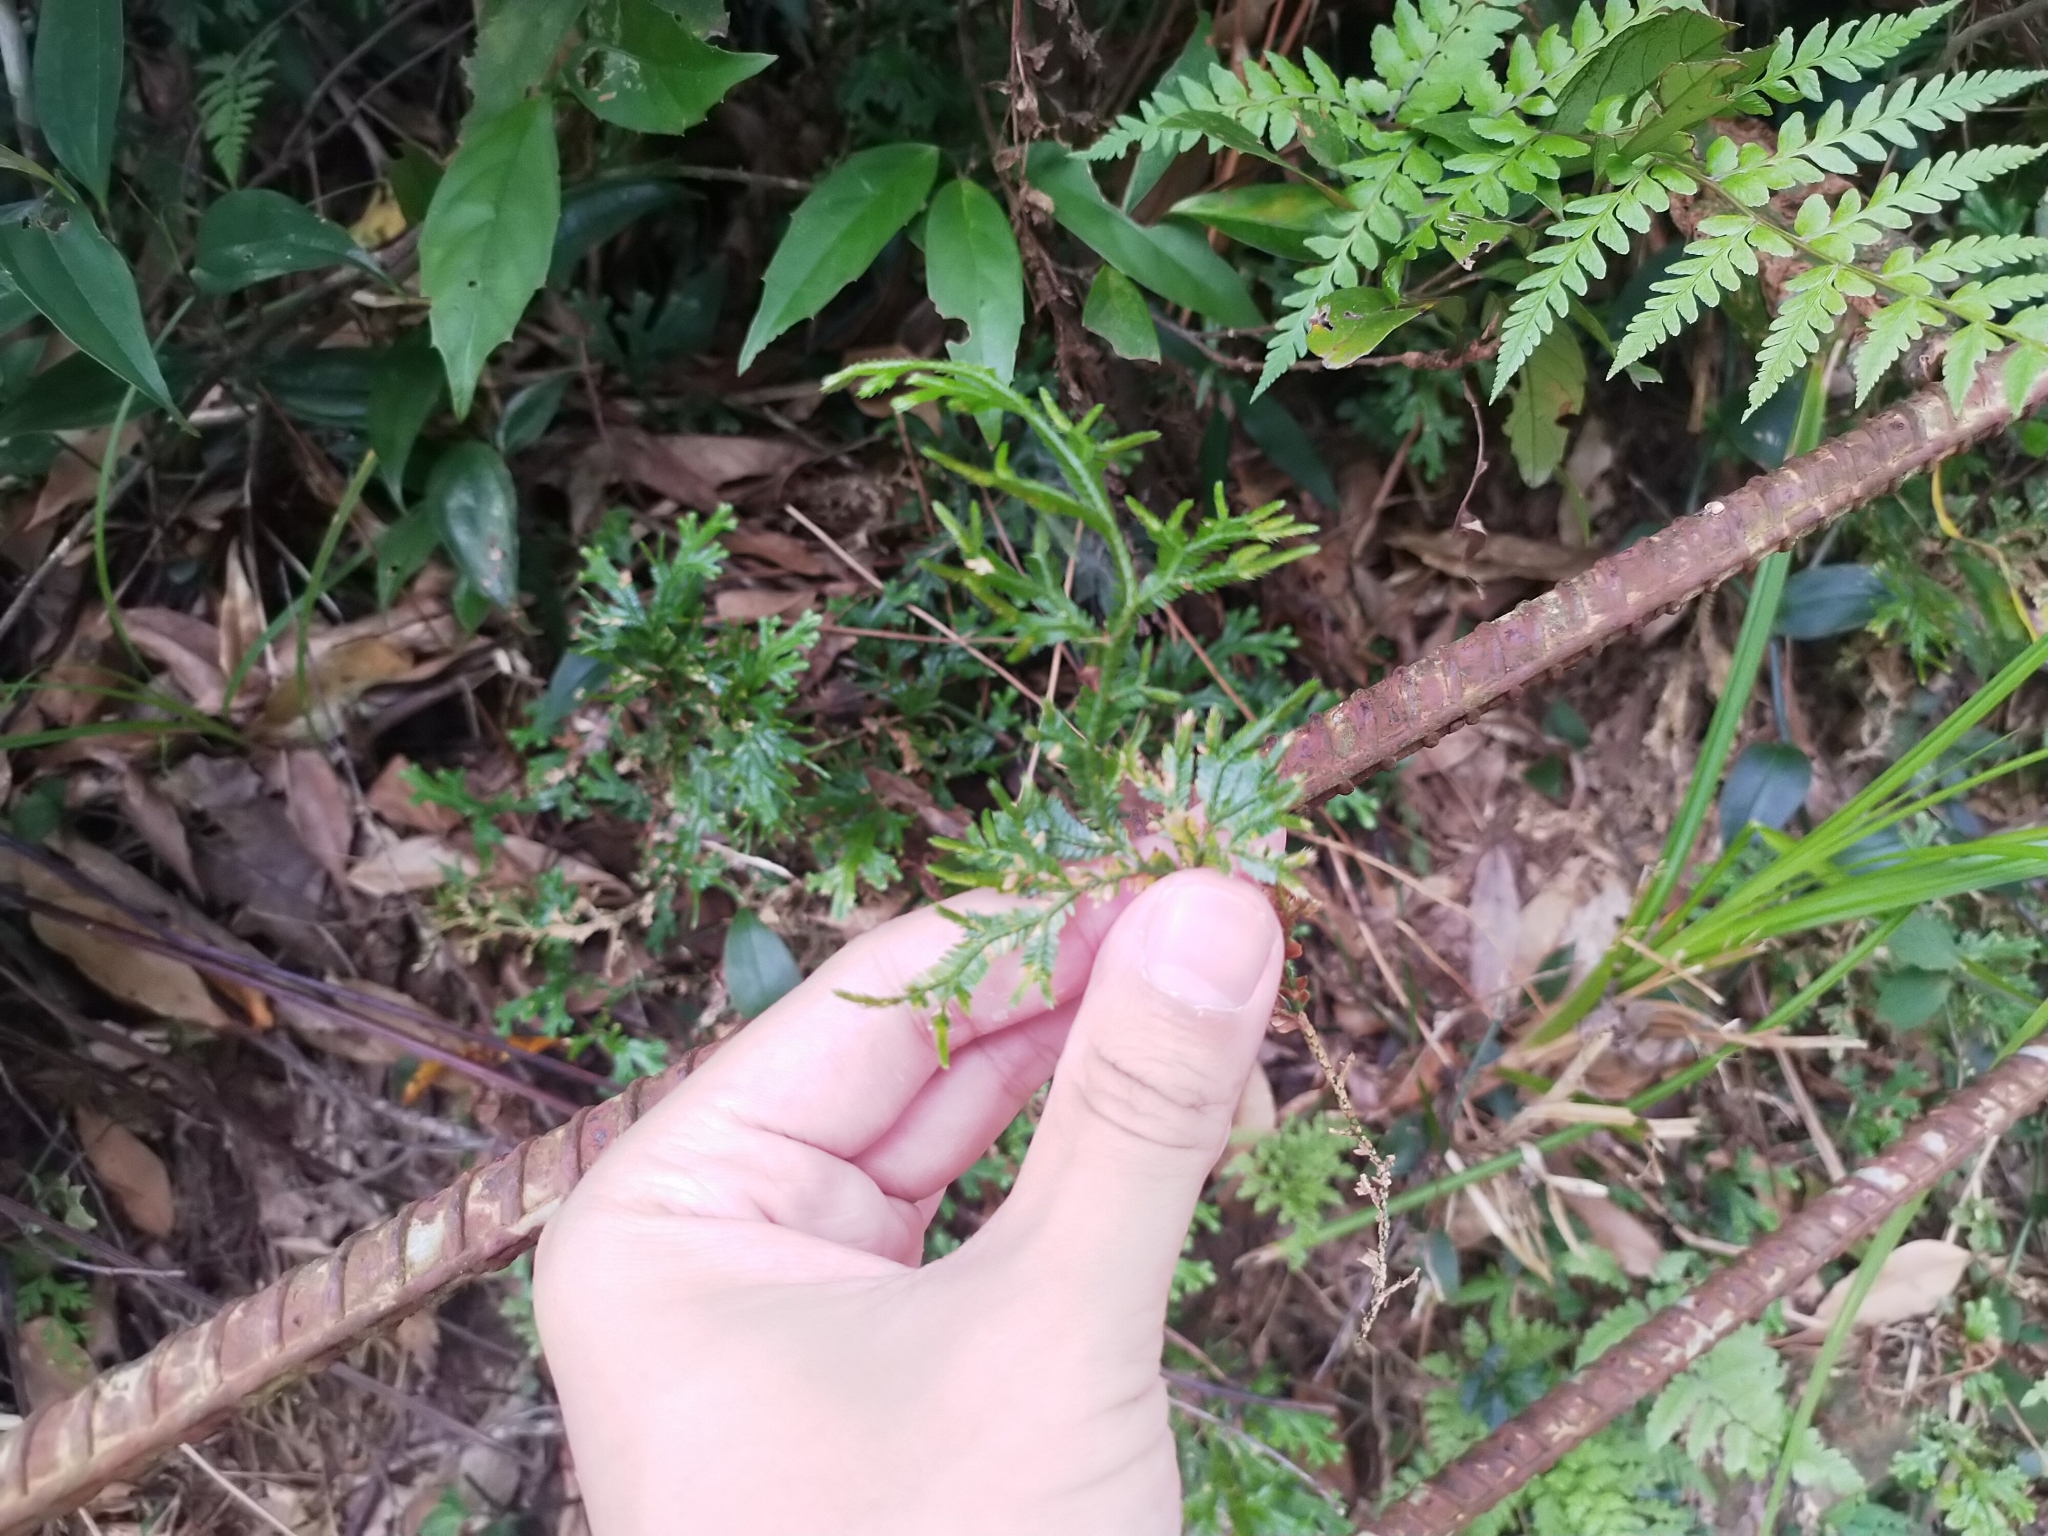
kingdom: Plantae
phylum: Tracheophyta
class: Lycopodiopsida
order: Selaginellales
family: Selaginellaceae
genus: Selaginella
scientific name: Selaginella doederleinii
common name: Greater selaginella
